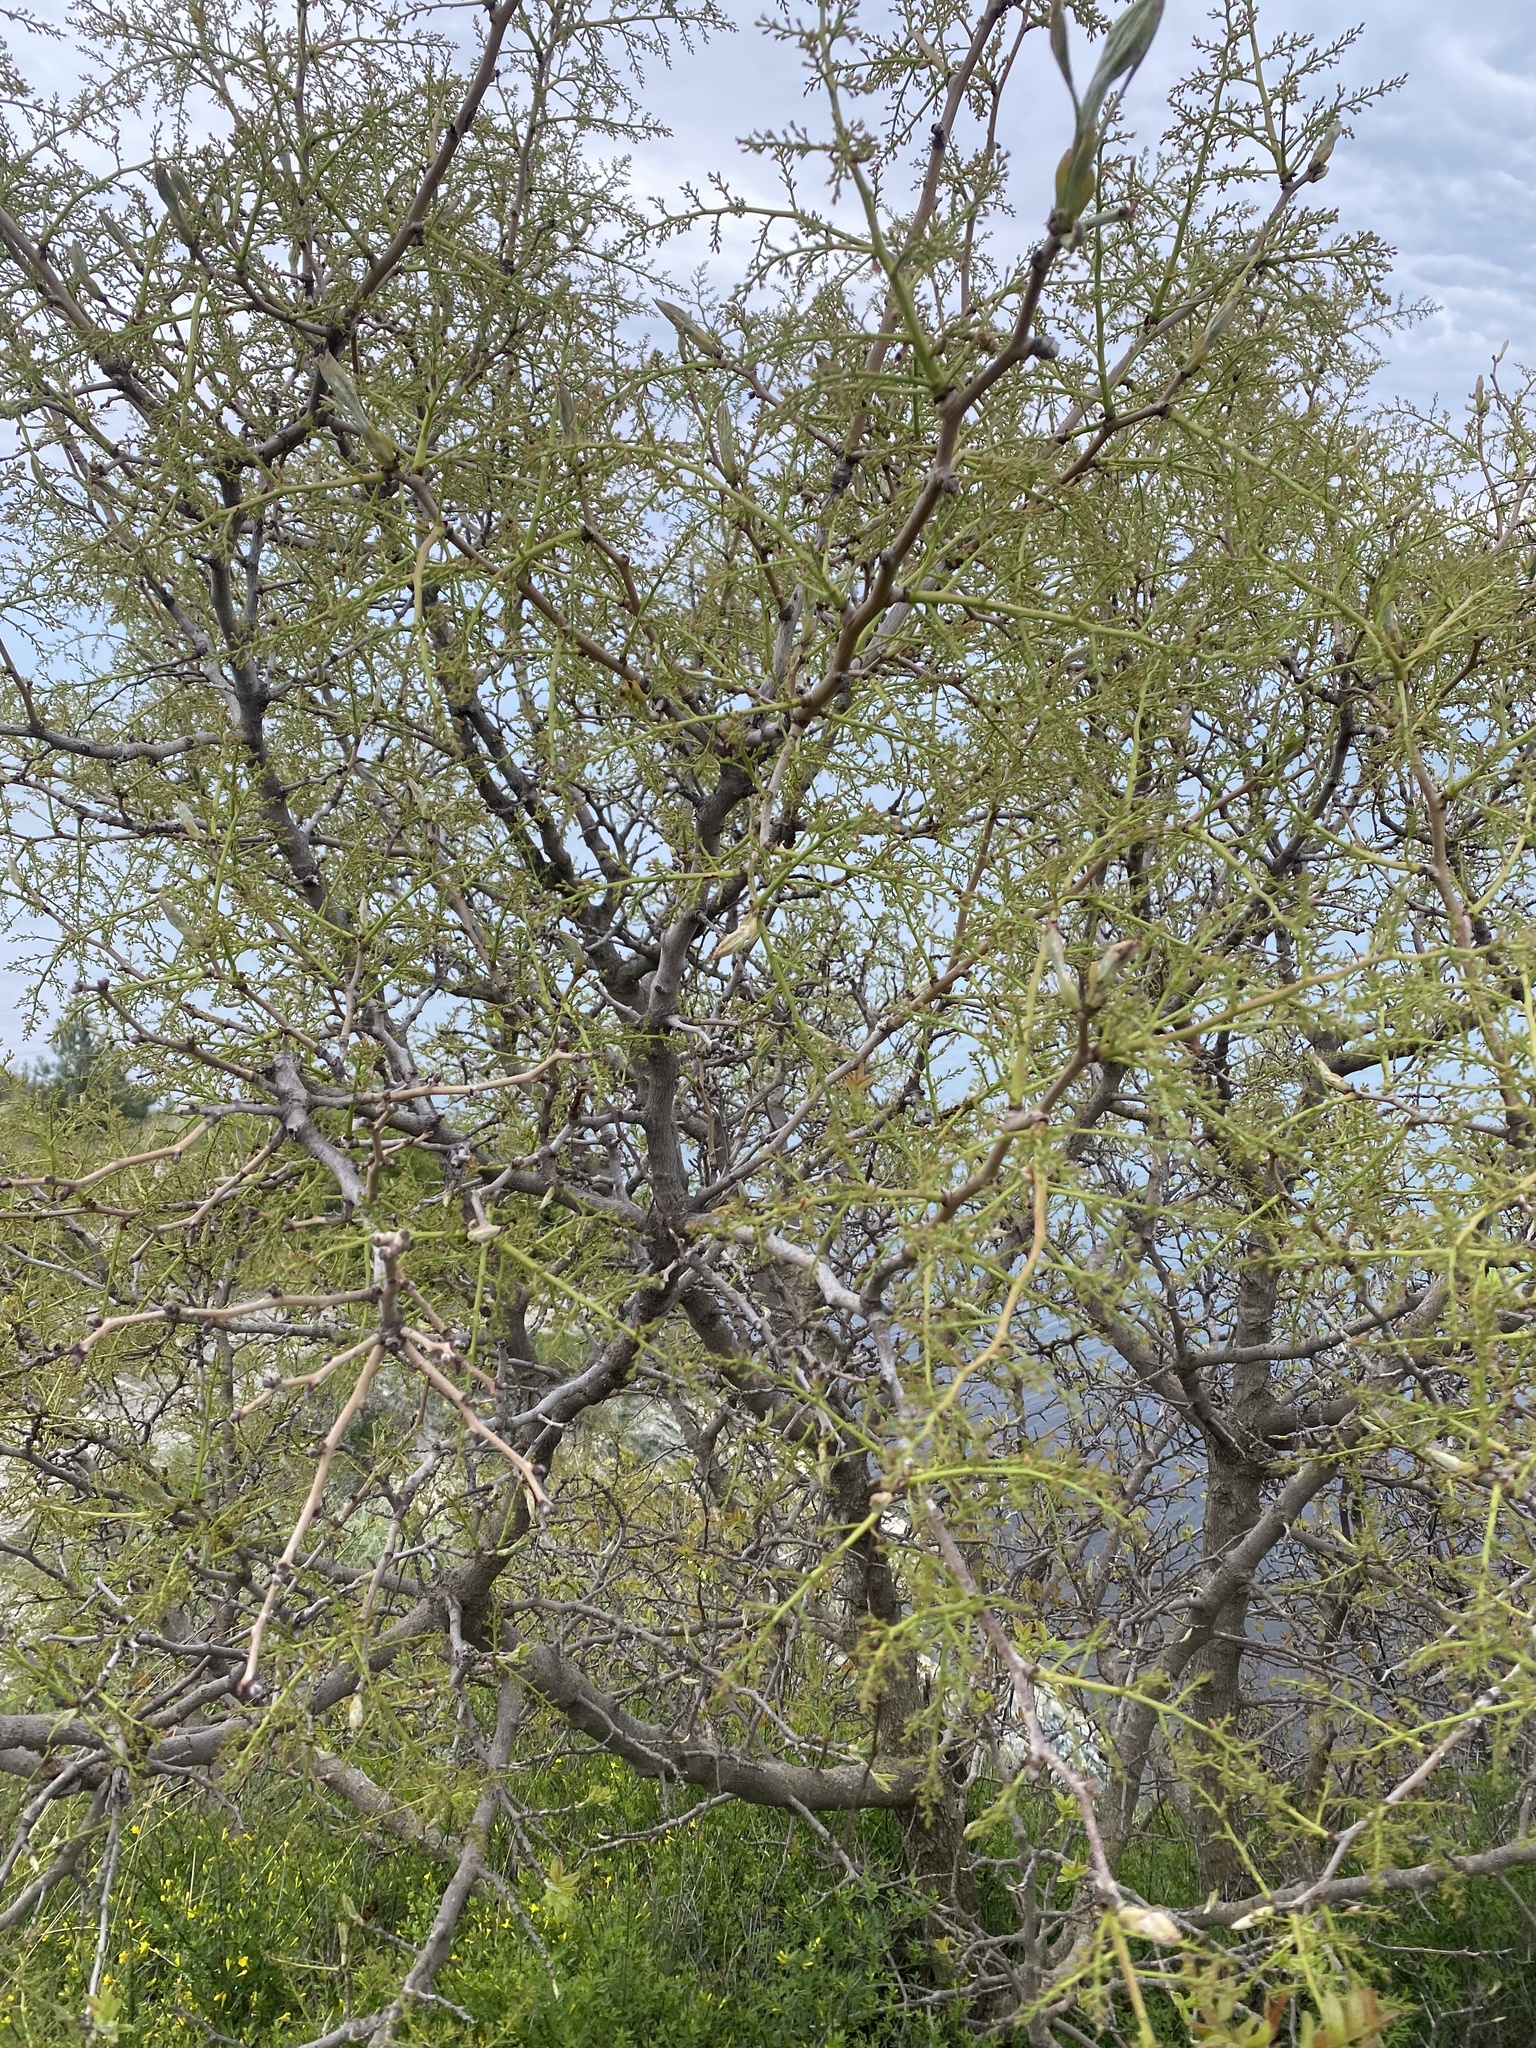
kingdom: Plantae
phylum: Tracheophyta
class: Magnoliopsida
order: Sapindales
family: Anacardiaceae
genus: Pistacia
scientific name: Pistacia atlantica
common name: Mt. atlas mastic tree
